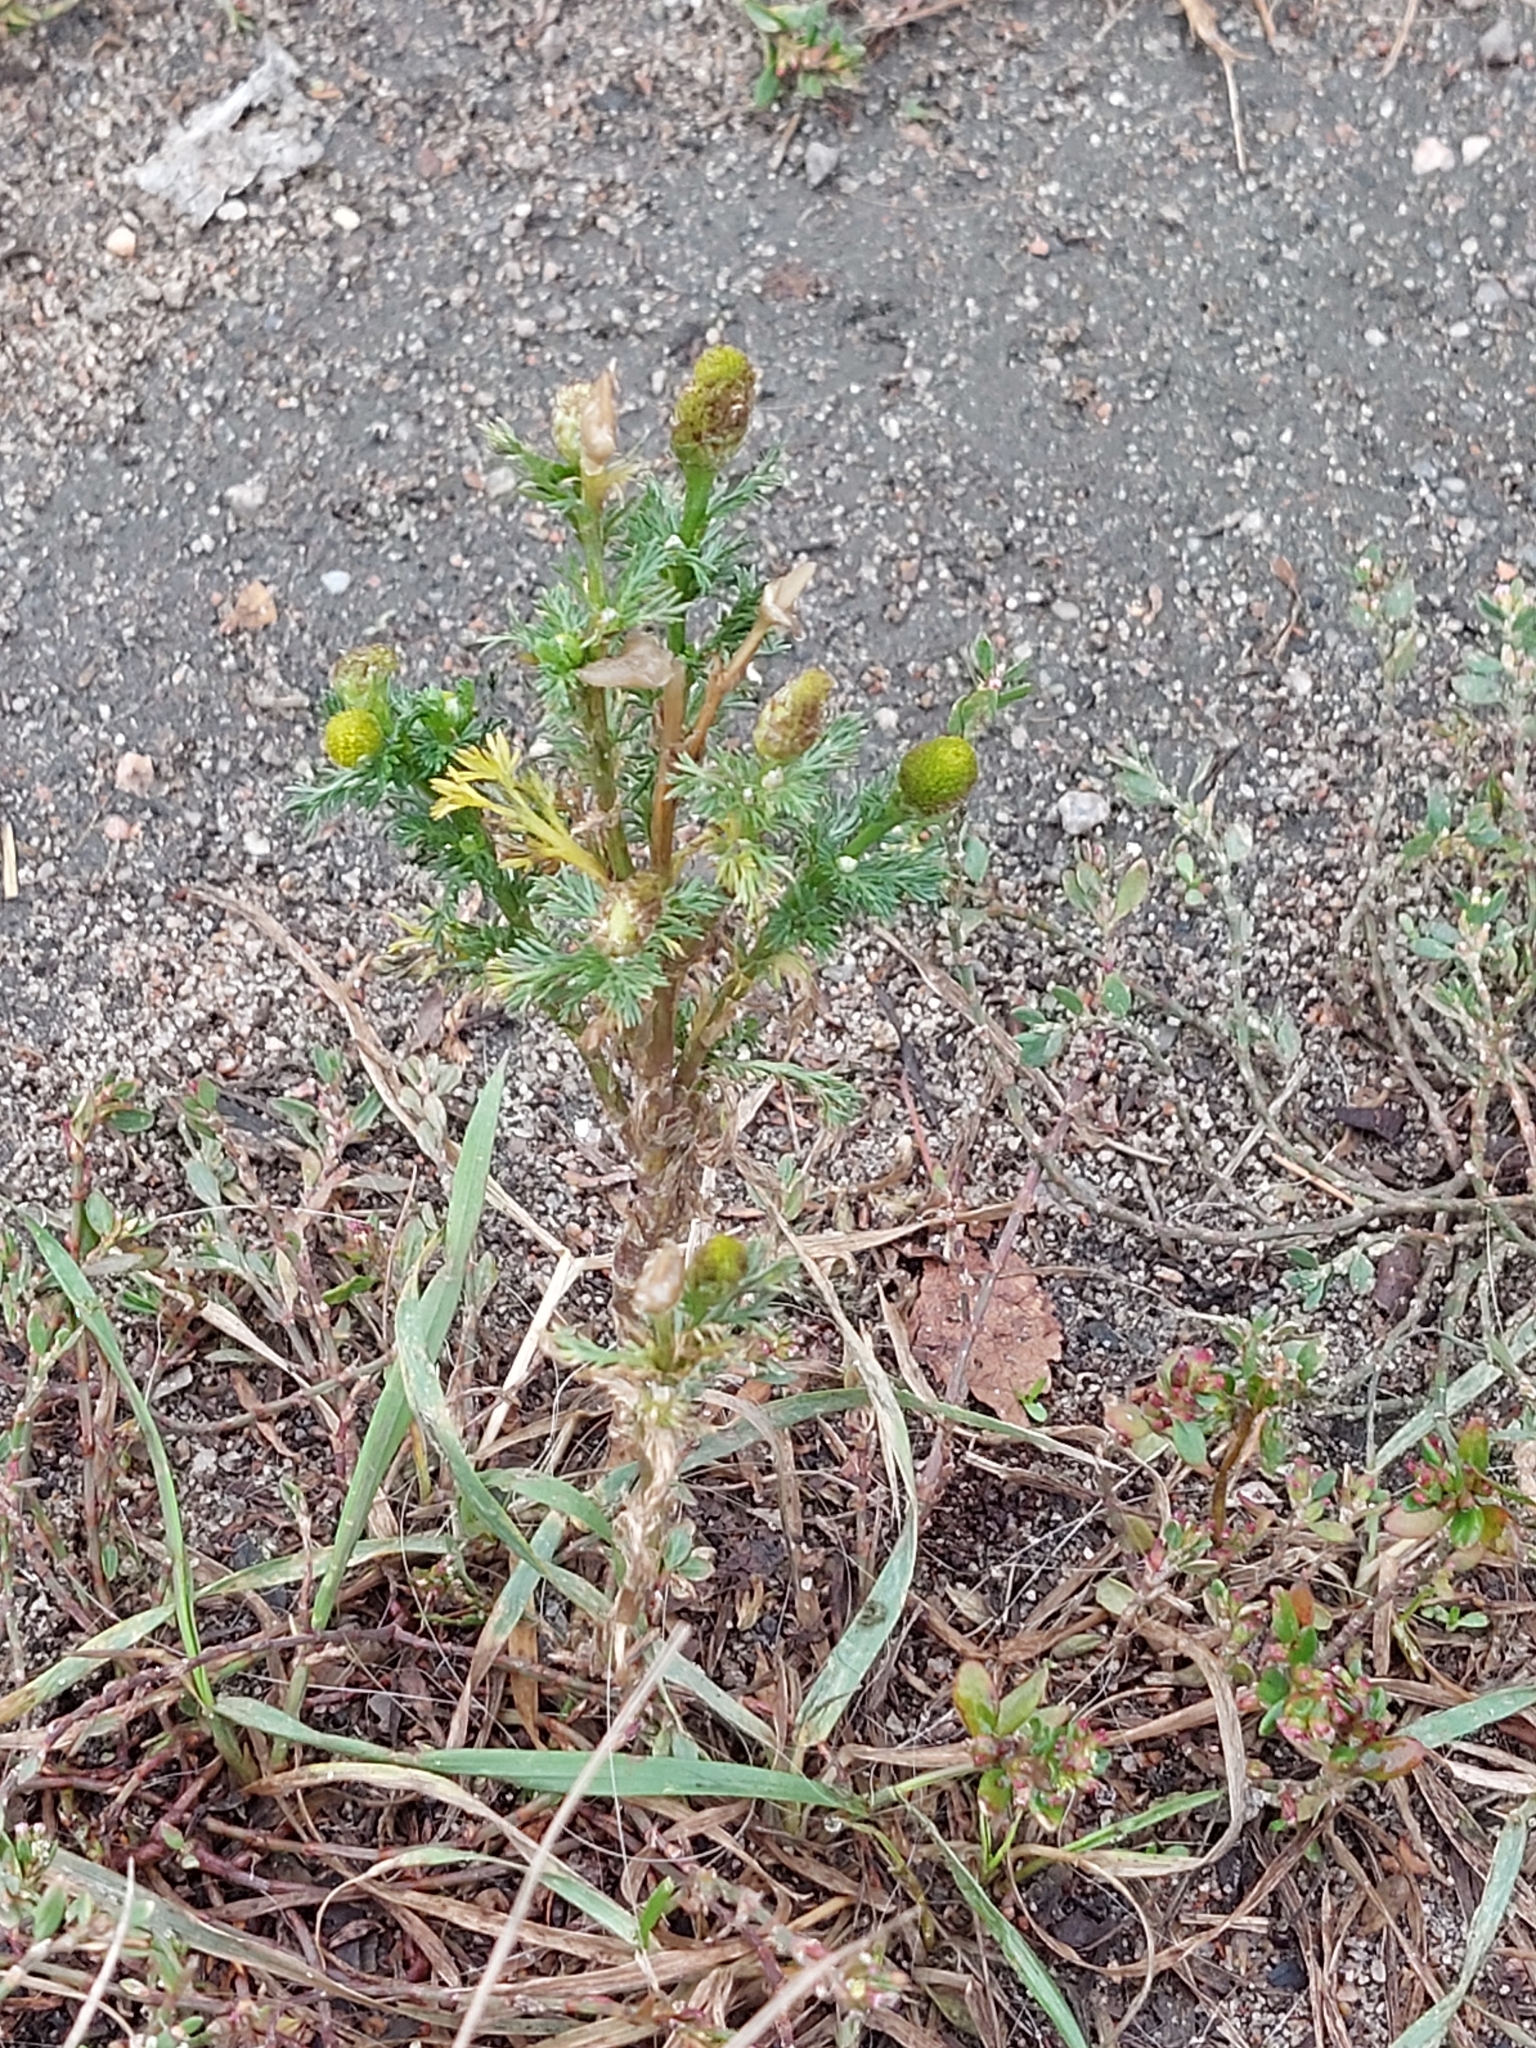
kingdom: Plantae
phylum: Tracheophyta
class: Magnoliopsida
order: Asterales
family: Asteraceae
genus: Matricaria
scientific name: Matricaria discoidea
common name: Disc mayweed
